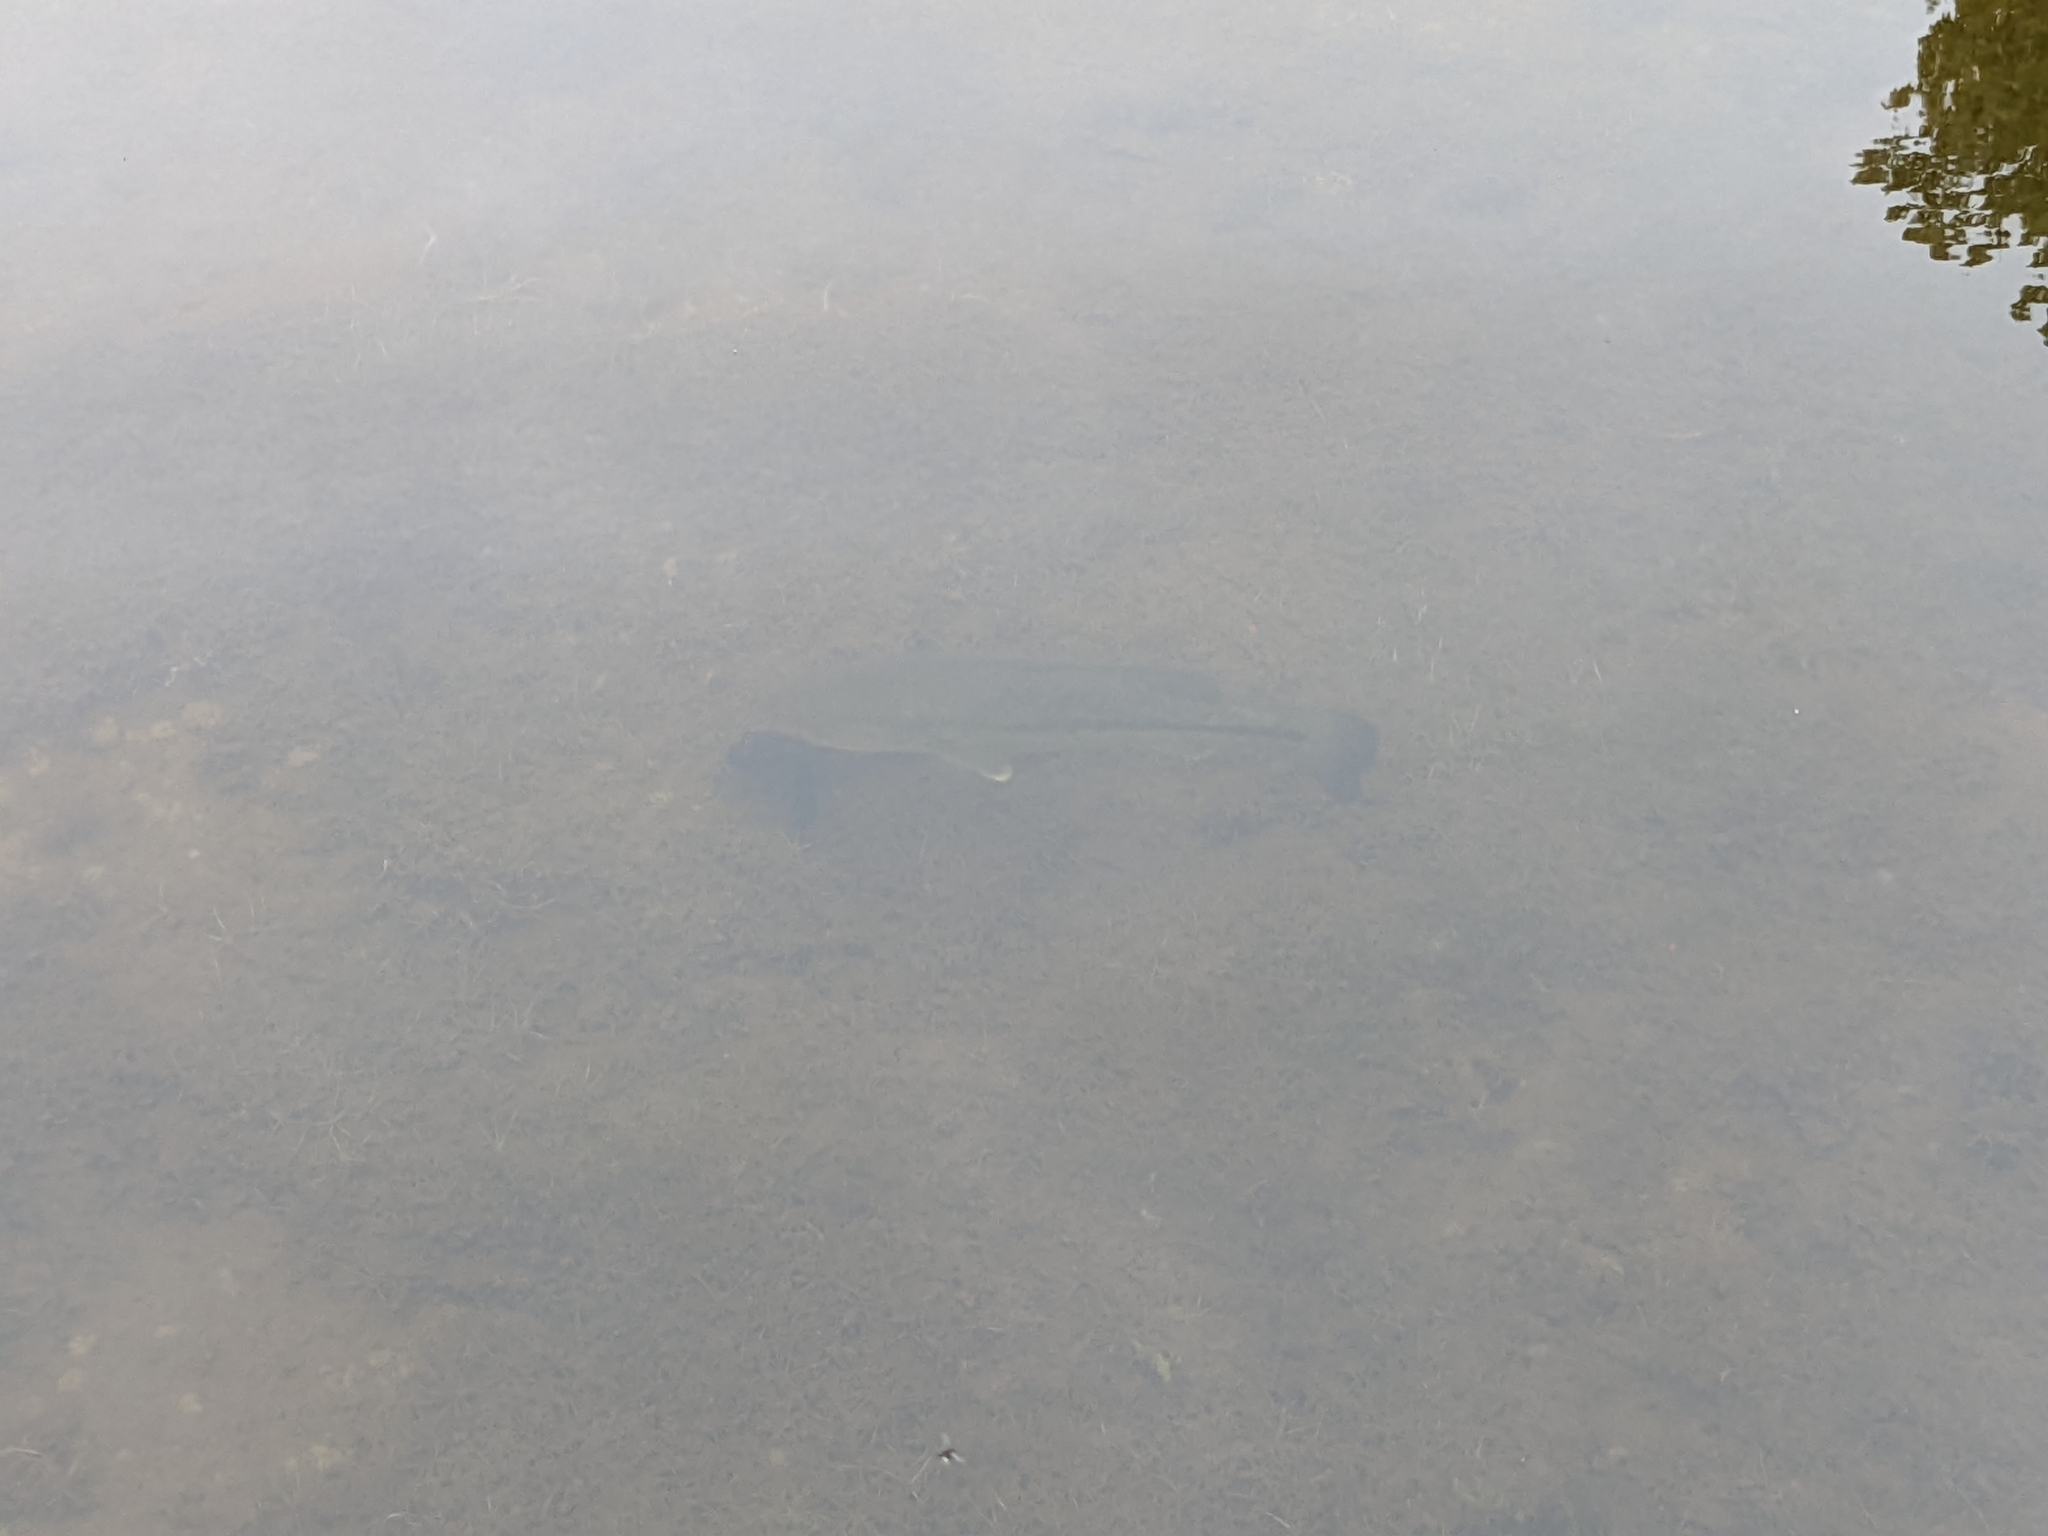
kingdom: Animalia
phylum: Chordata
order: Perciformes
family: Centrarchidae
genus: Micropterus
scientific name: Micropterus
